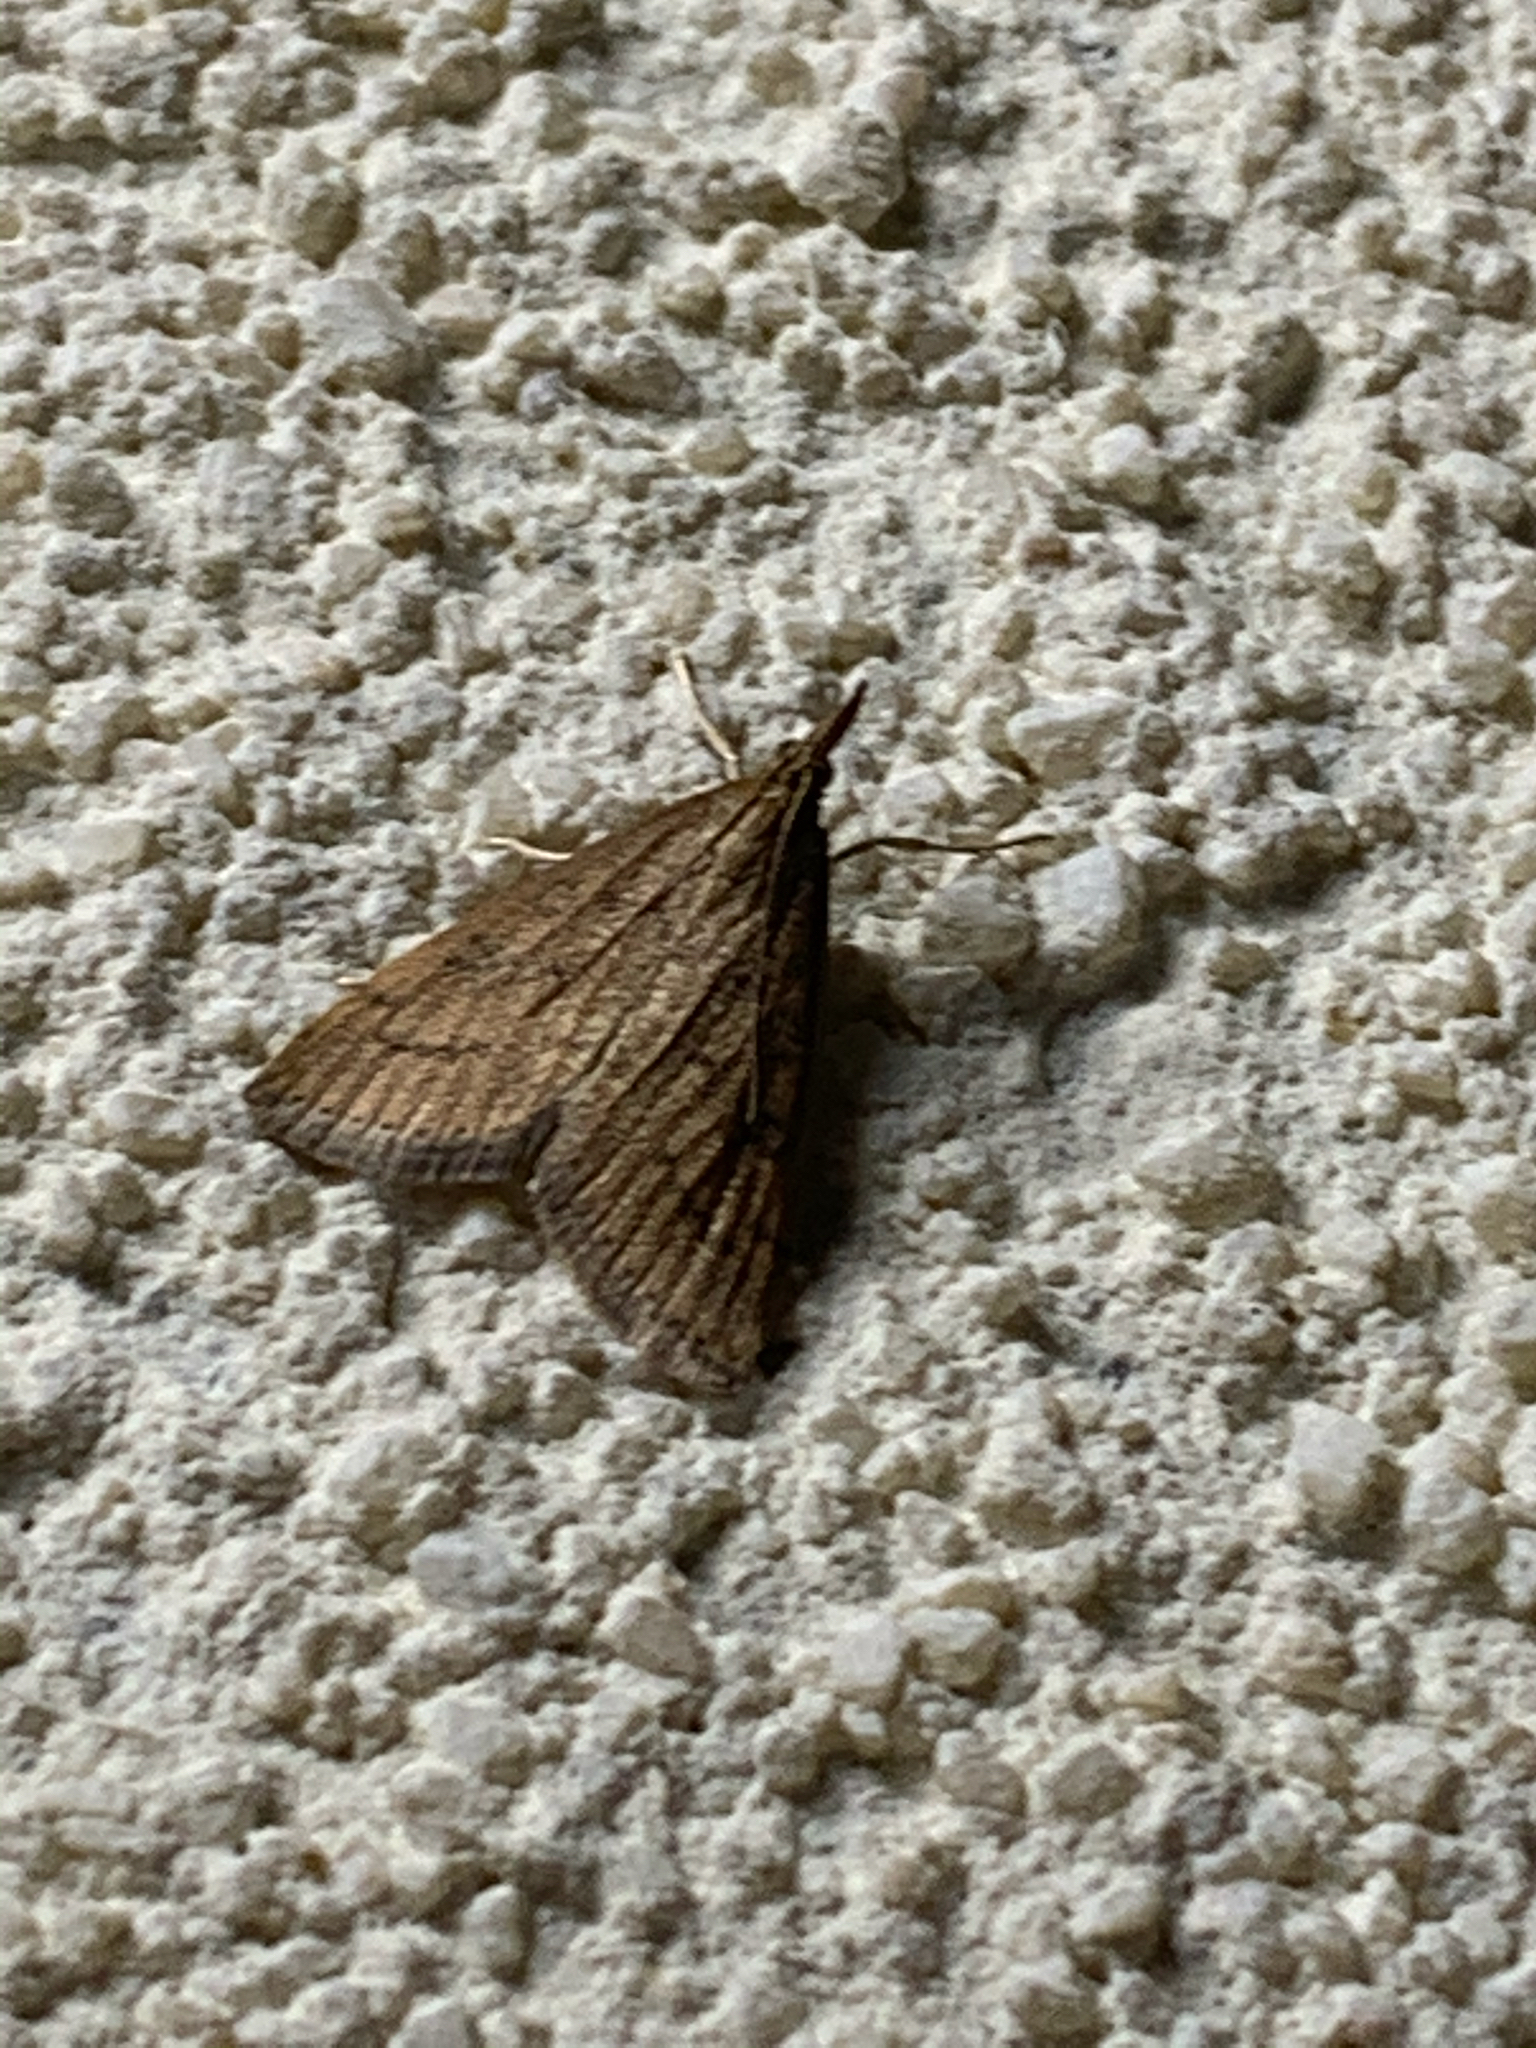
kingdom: Animalia
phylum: Arthropoda
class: Insecta
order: Lepidoptera
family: Crambidae
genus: Udea
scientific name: Udea rubigalis
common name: Celery leaftier moth
